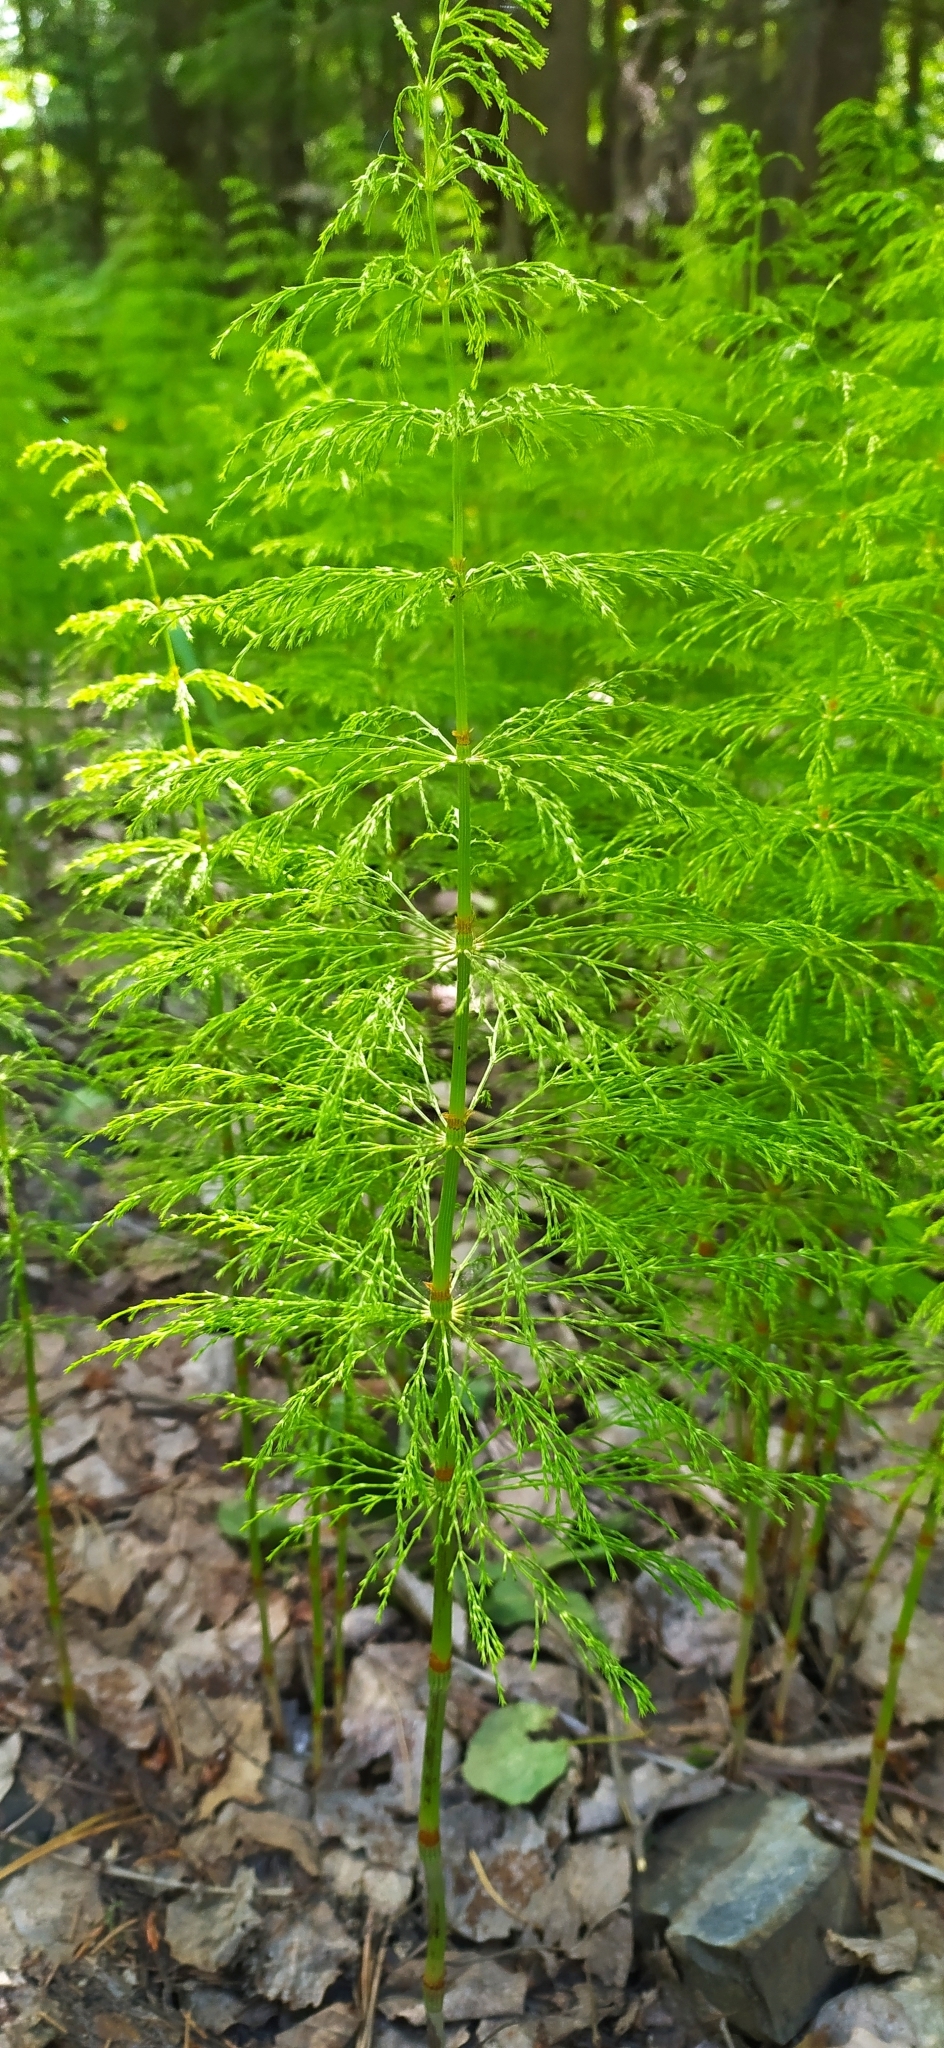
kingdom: Plantae
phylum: Tracheophyta
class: Polypodiopsida
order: Equisetales
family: Equisetaceae
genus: Equisetum
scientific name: Equisetum sylvaticum
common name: Wood horsetail
